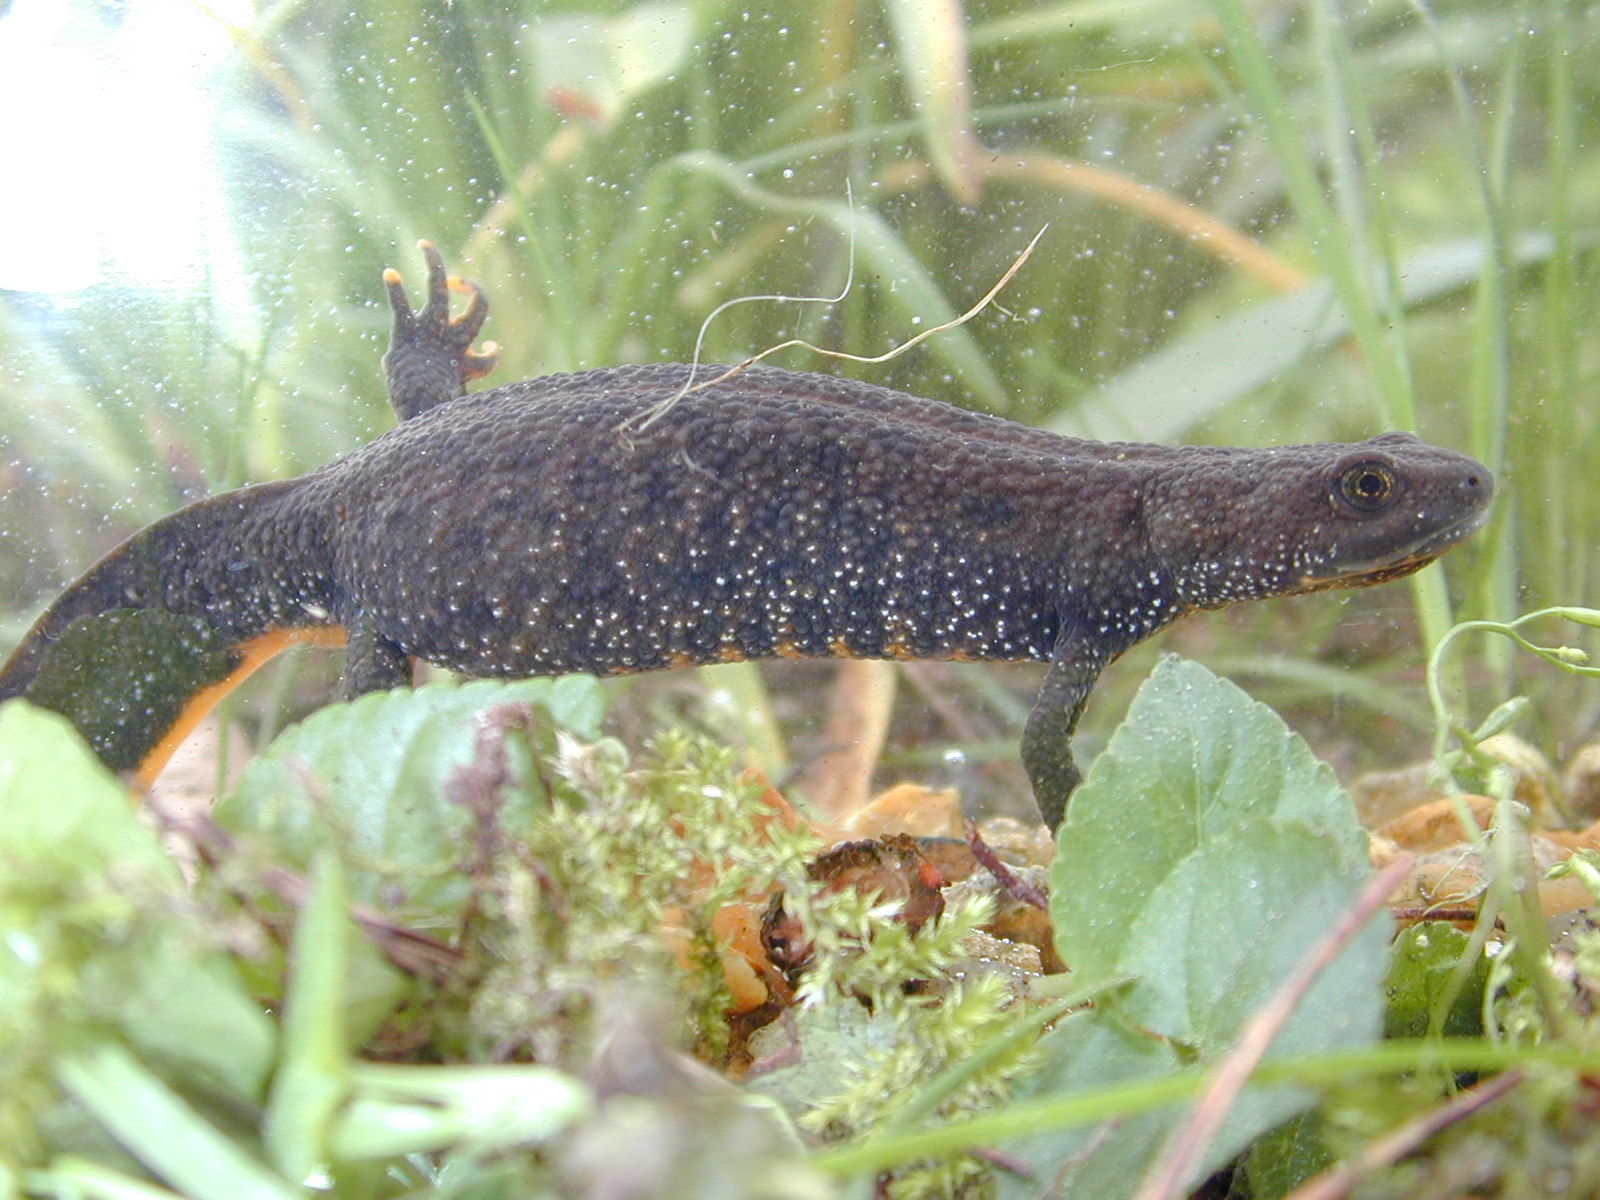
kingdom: Animalia
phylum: Chordata
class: Amphibia
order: Caudata
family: Salamandridae
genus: Triturus
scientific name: Triturus cristatus
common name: Crested newt
